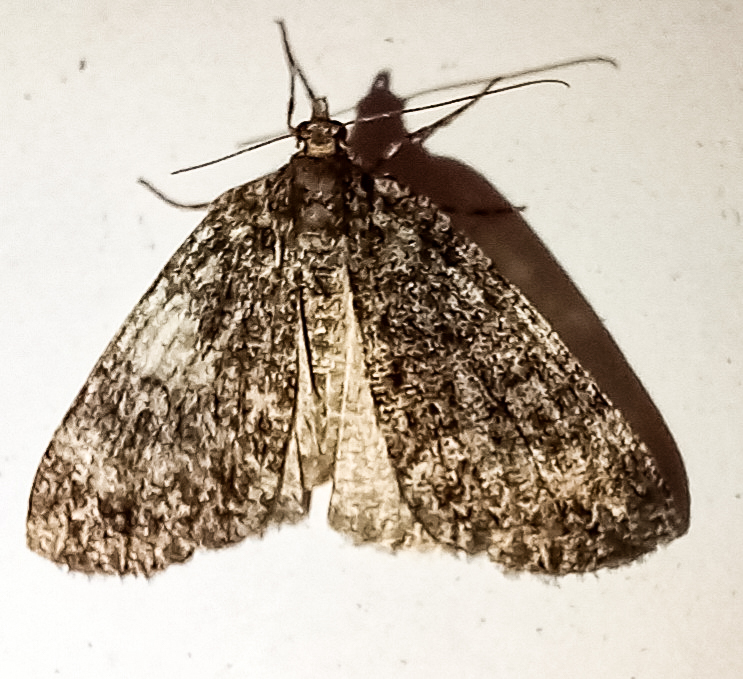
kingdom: Animalia
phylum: Arthropoda
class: Insecta
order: Lepidoptera
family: Geometridae
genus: Pseudocoremia
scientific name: Pseudocoremia suavis
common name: Common forest looper
